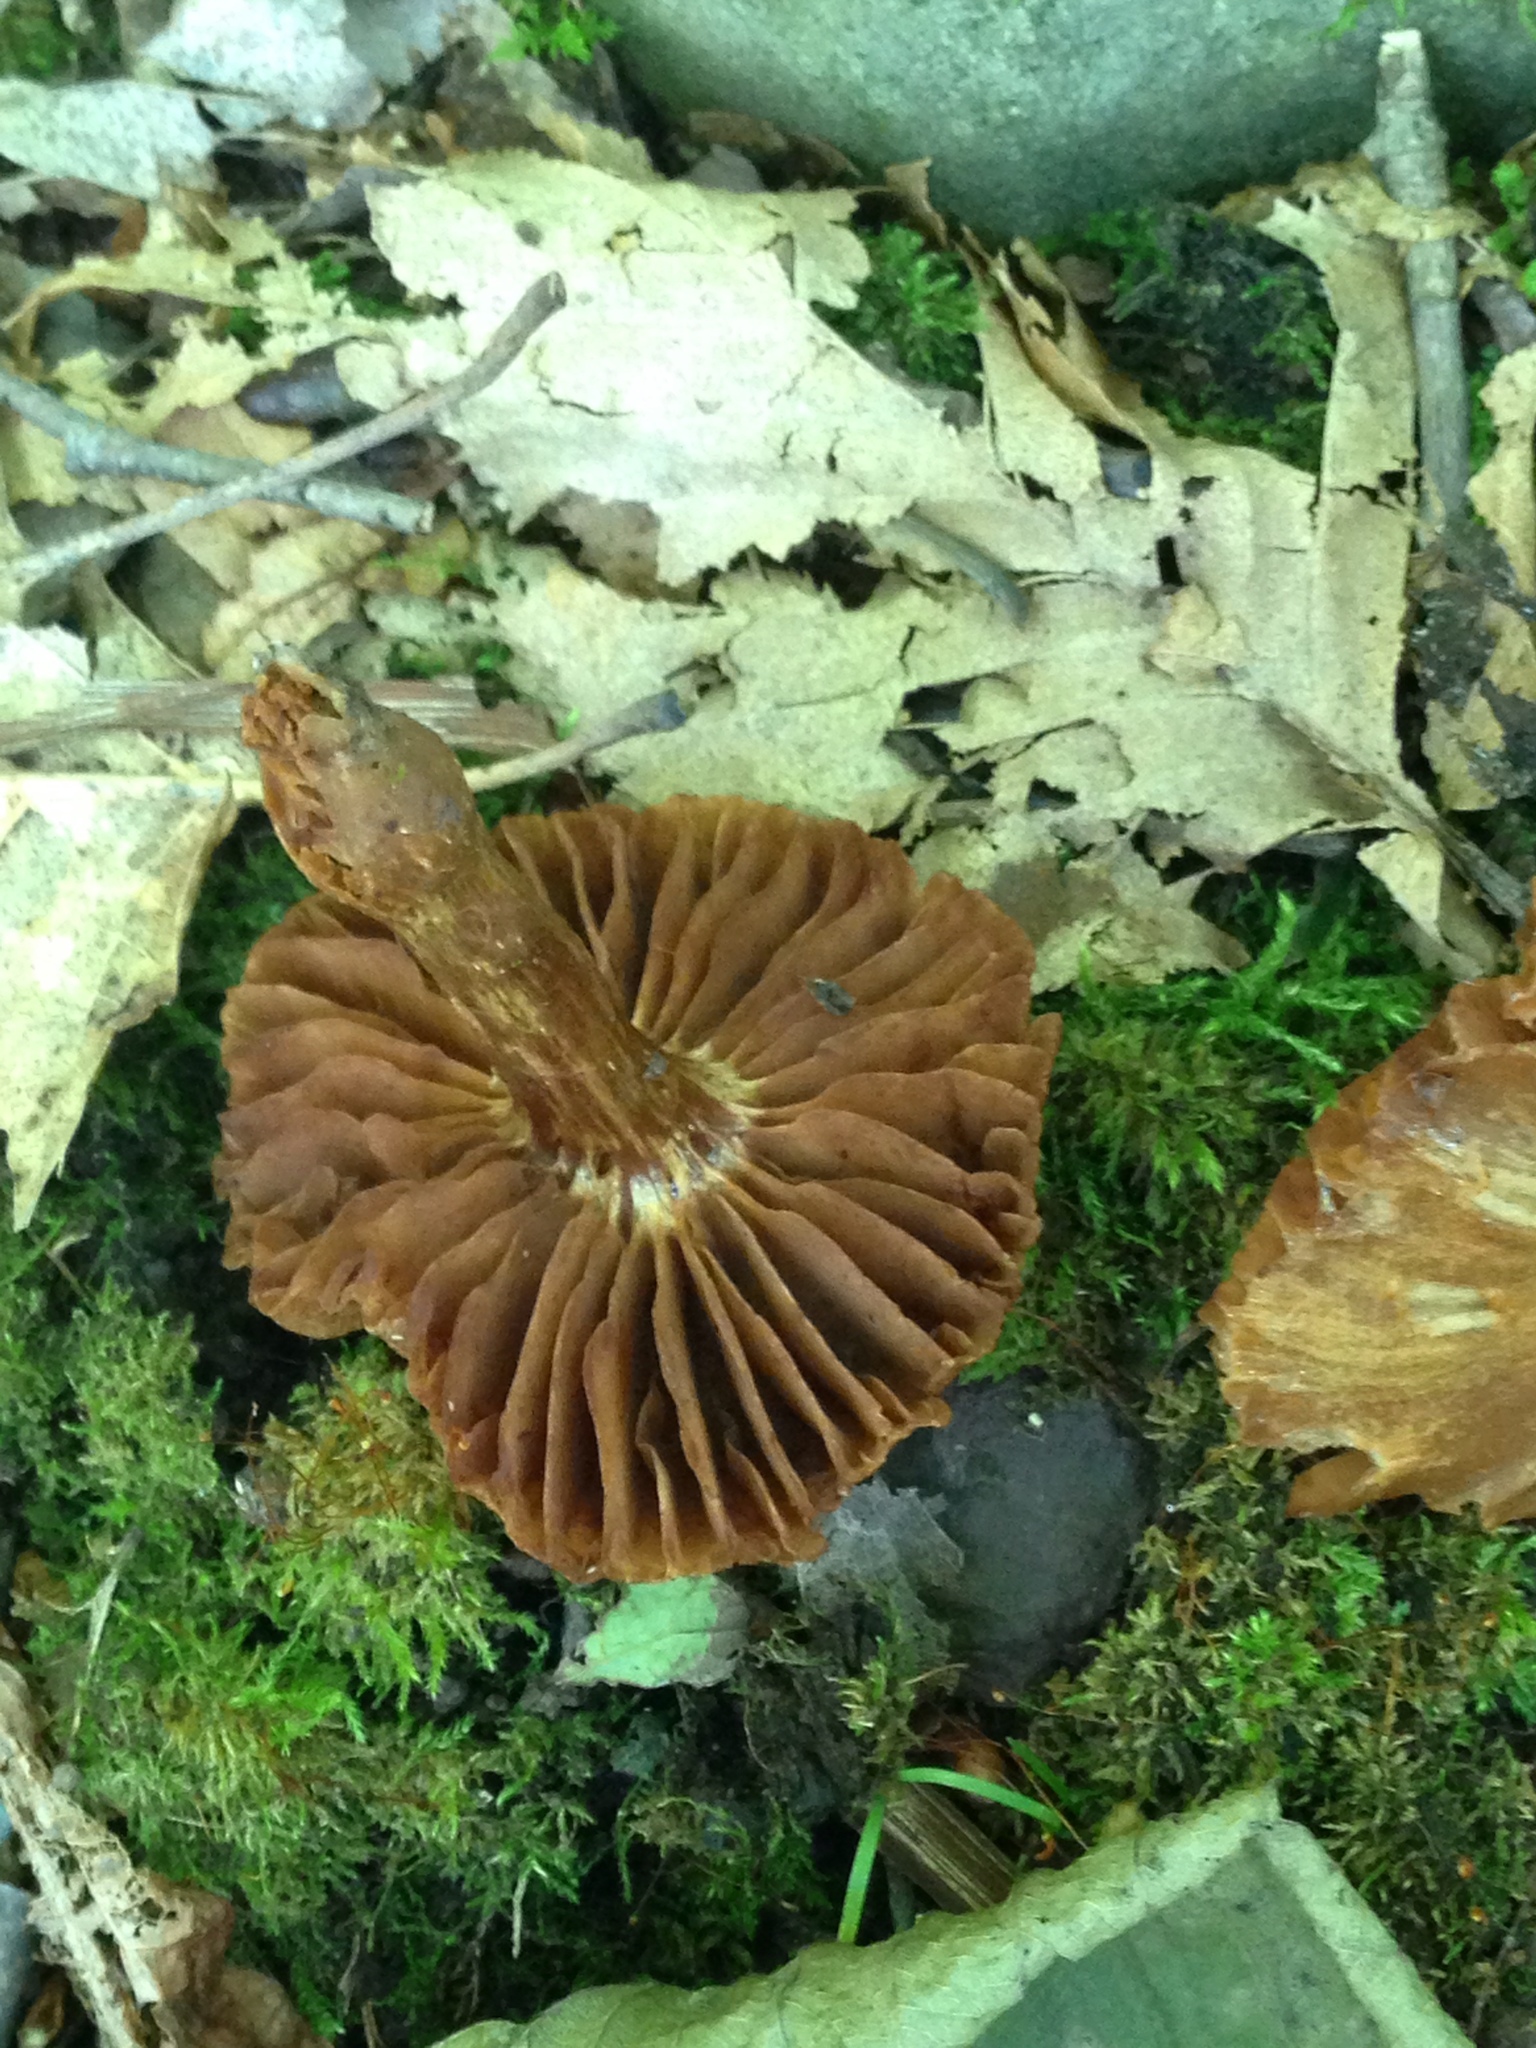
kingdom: Fungi
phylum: Basidiomycota
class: Agaricomycetes
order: Agaricales
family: Cortinariaceae
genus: Cortinarius
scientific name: Cortinarius
